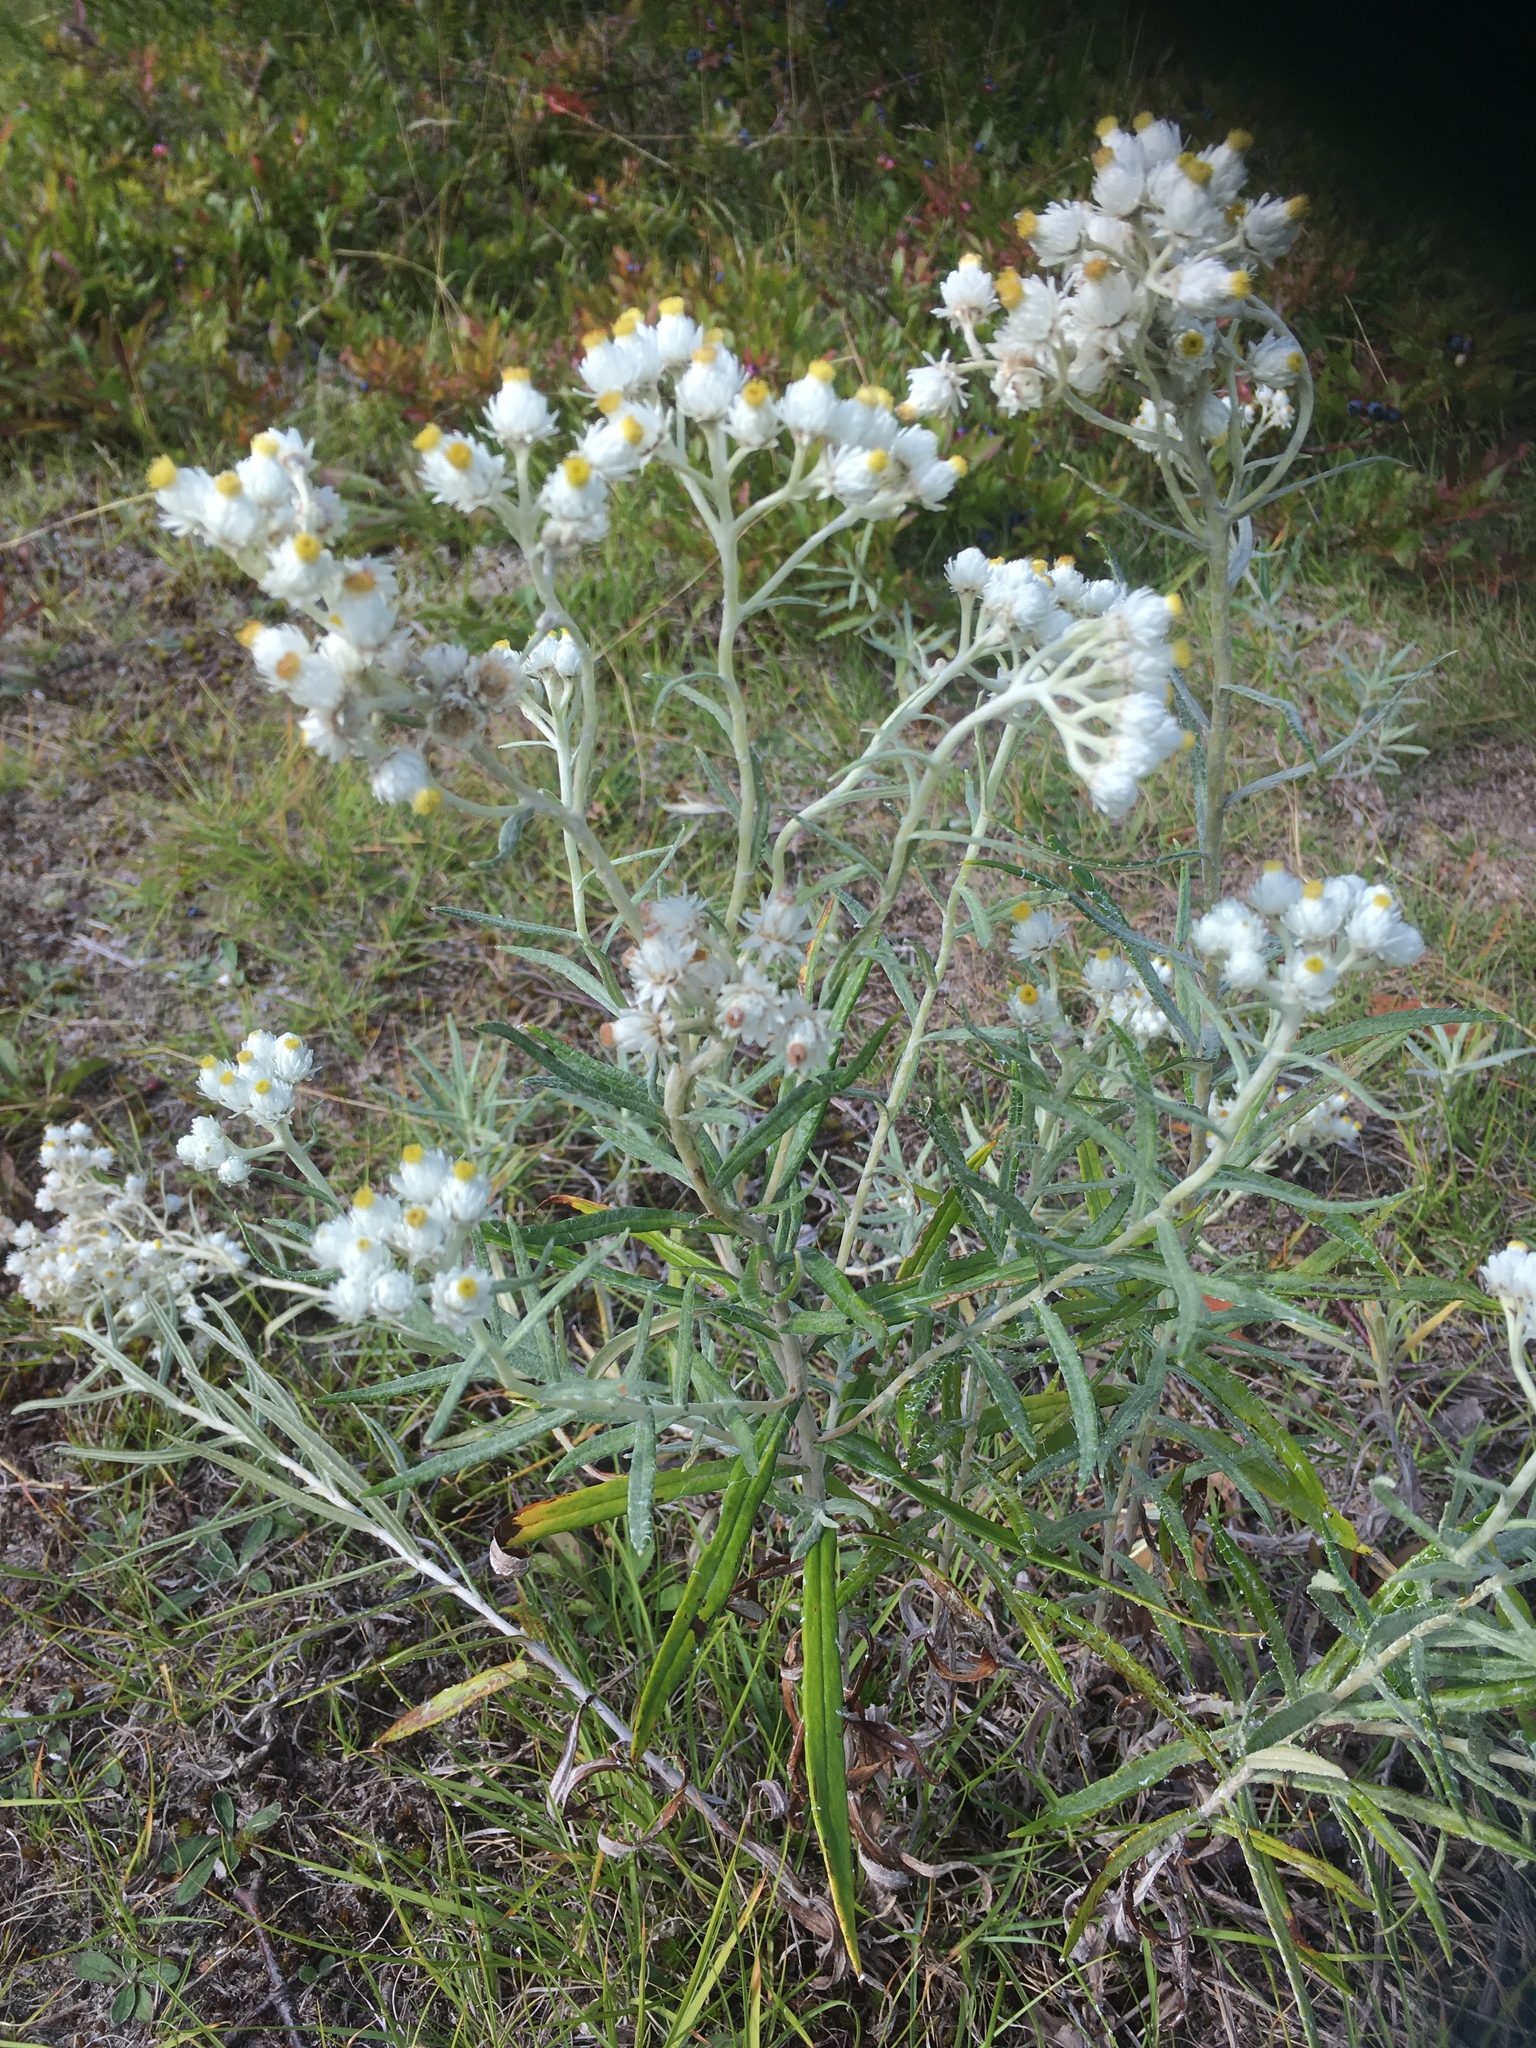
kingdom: Plantae
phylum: Tracheophyta
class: Magnoliopsida
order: Asterales
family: Asteraceae
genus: Anaphalis
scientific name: Anaphalis margaritacea
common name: Pearly everlasting
